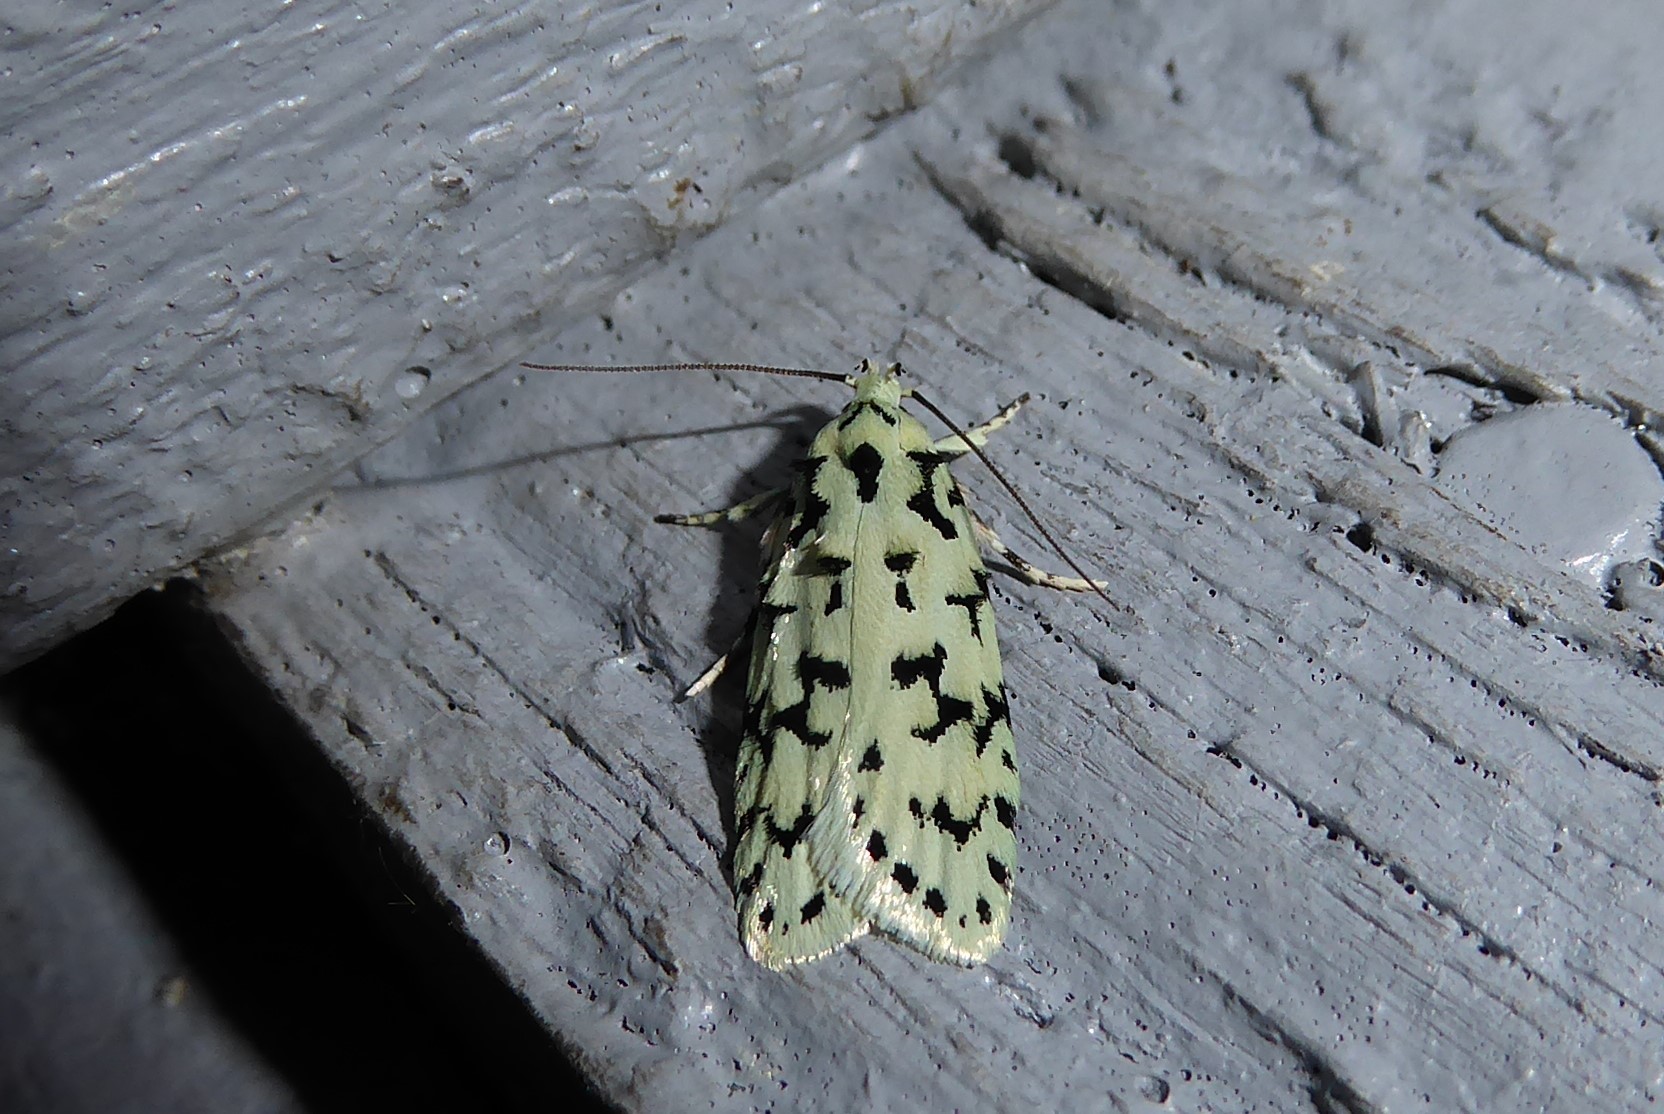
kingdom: Animalia
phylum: Arthropoda
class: Insecta
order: Lepidoptera
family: Oecophoridae
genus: Izatha
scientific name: Izatha huttoni
